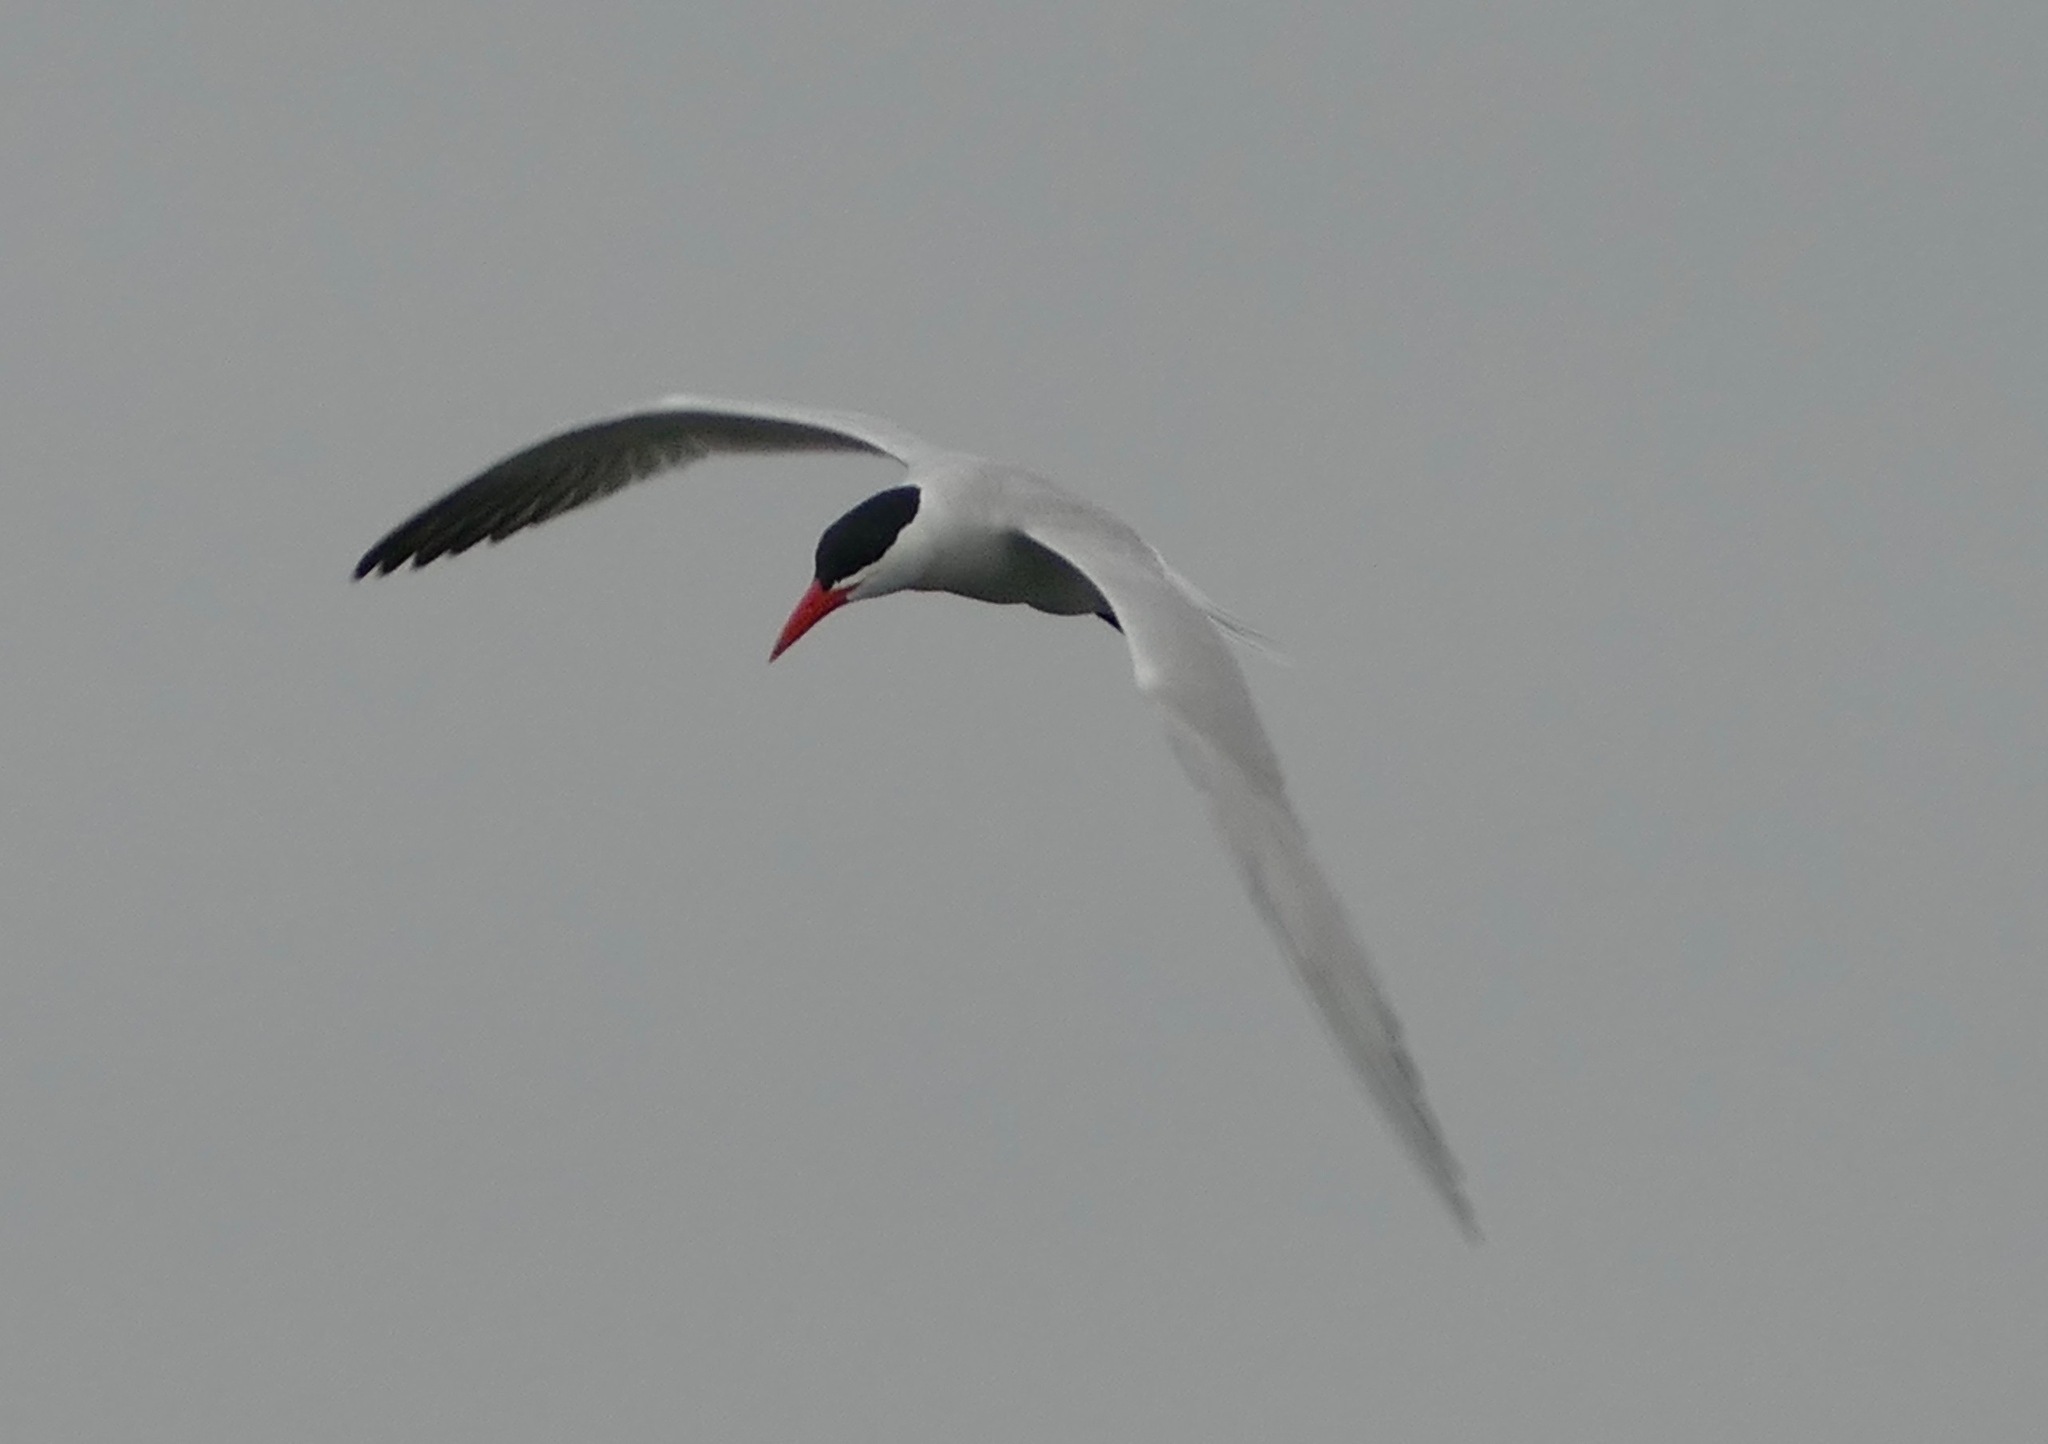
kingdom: Animalia
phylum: Chordata
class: Aves
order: Charadriiformes
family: Laridae
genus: Hydroprogne
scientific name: Hydroprogne caspia
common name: Caspian tern
